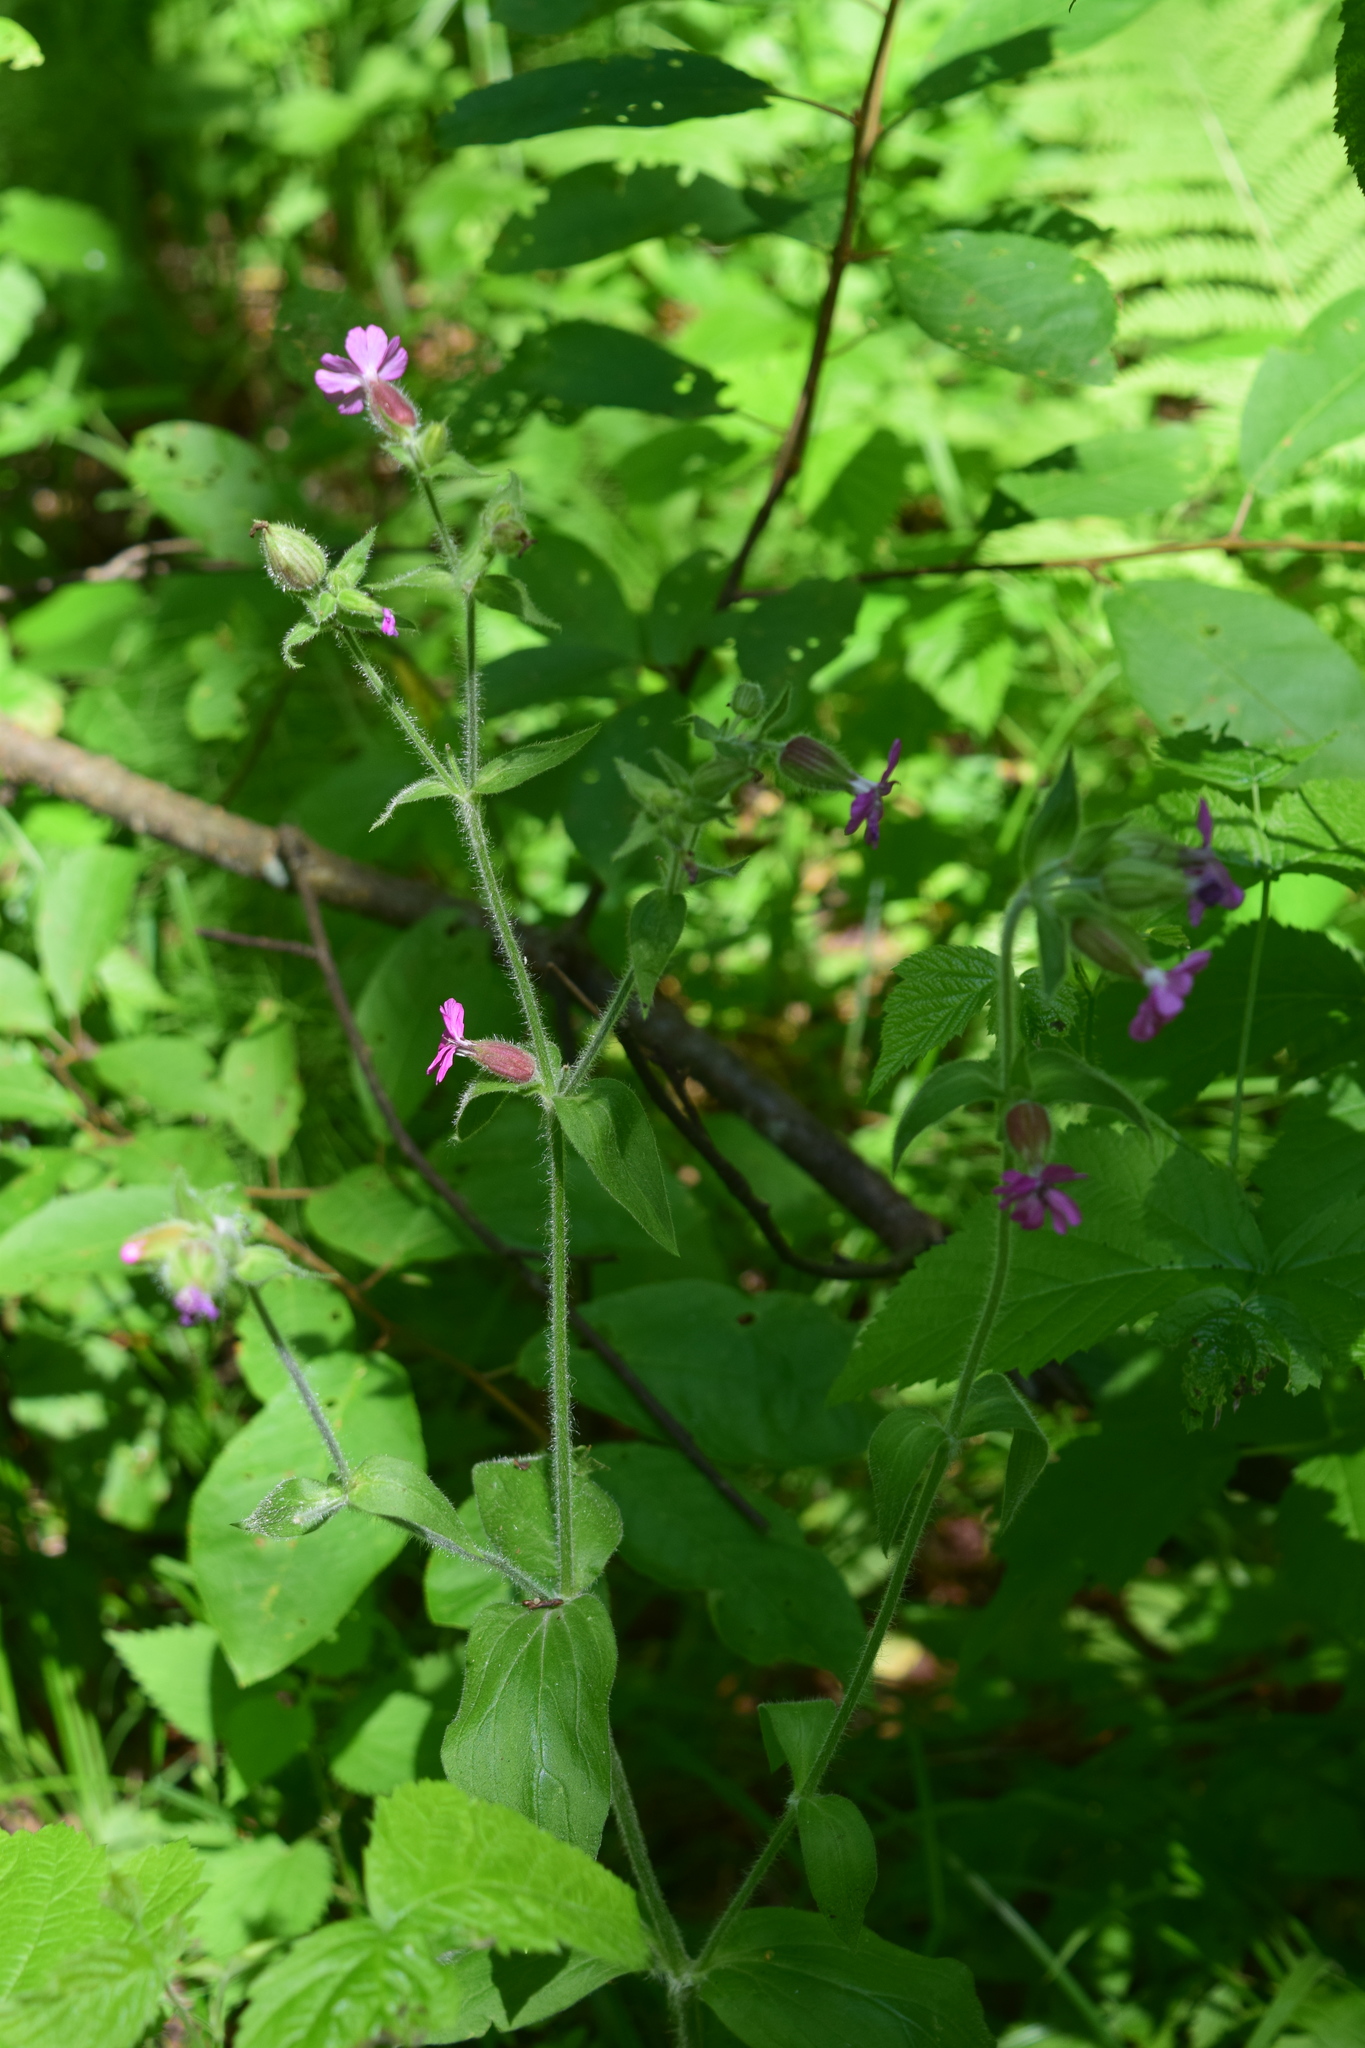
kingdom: Plantae
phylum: Tracheophyta
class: Magnoliopsida
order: Caryophyllales
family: Caryophyllaceae
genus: Silene
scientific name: Silene dioica
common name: Red campion
